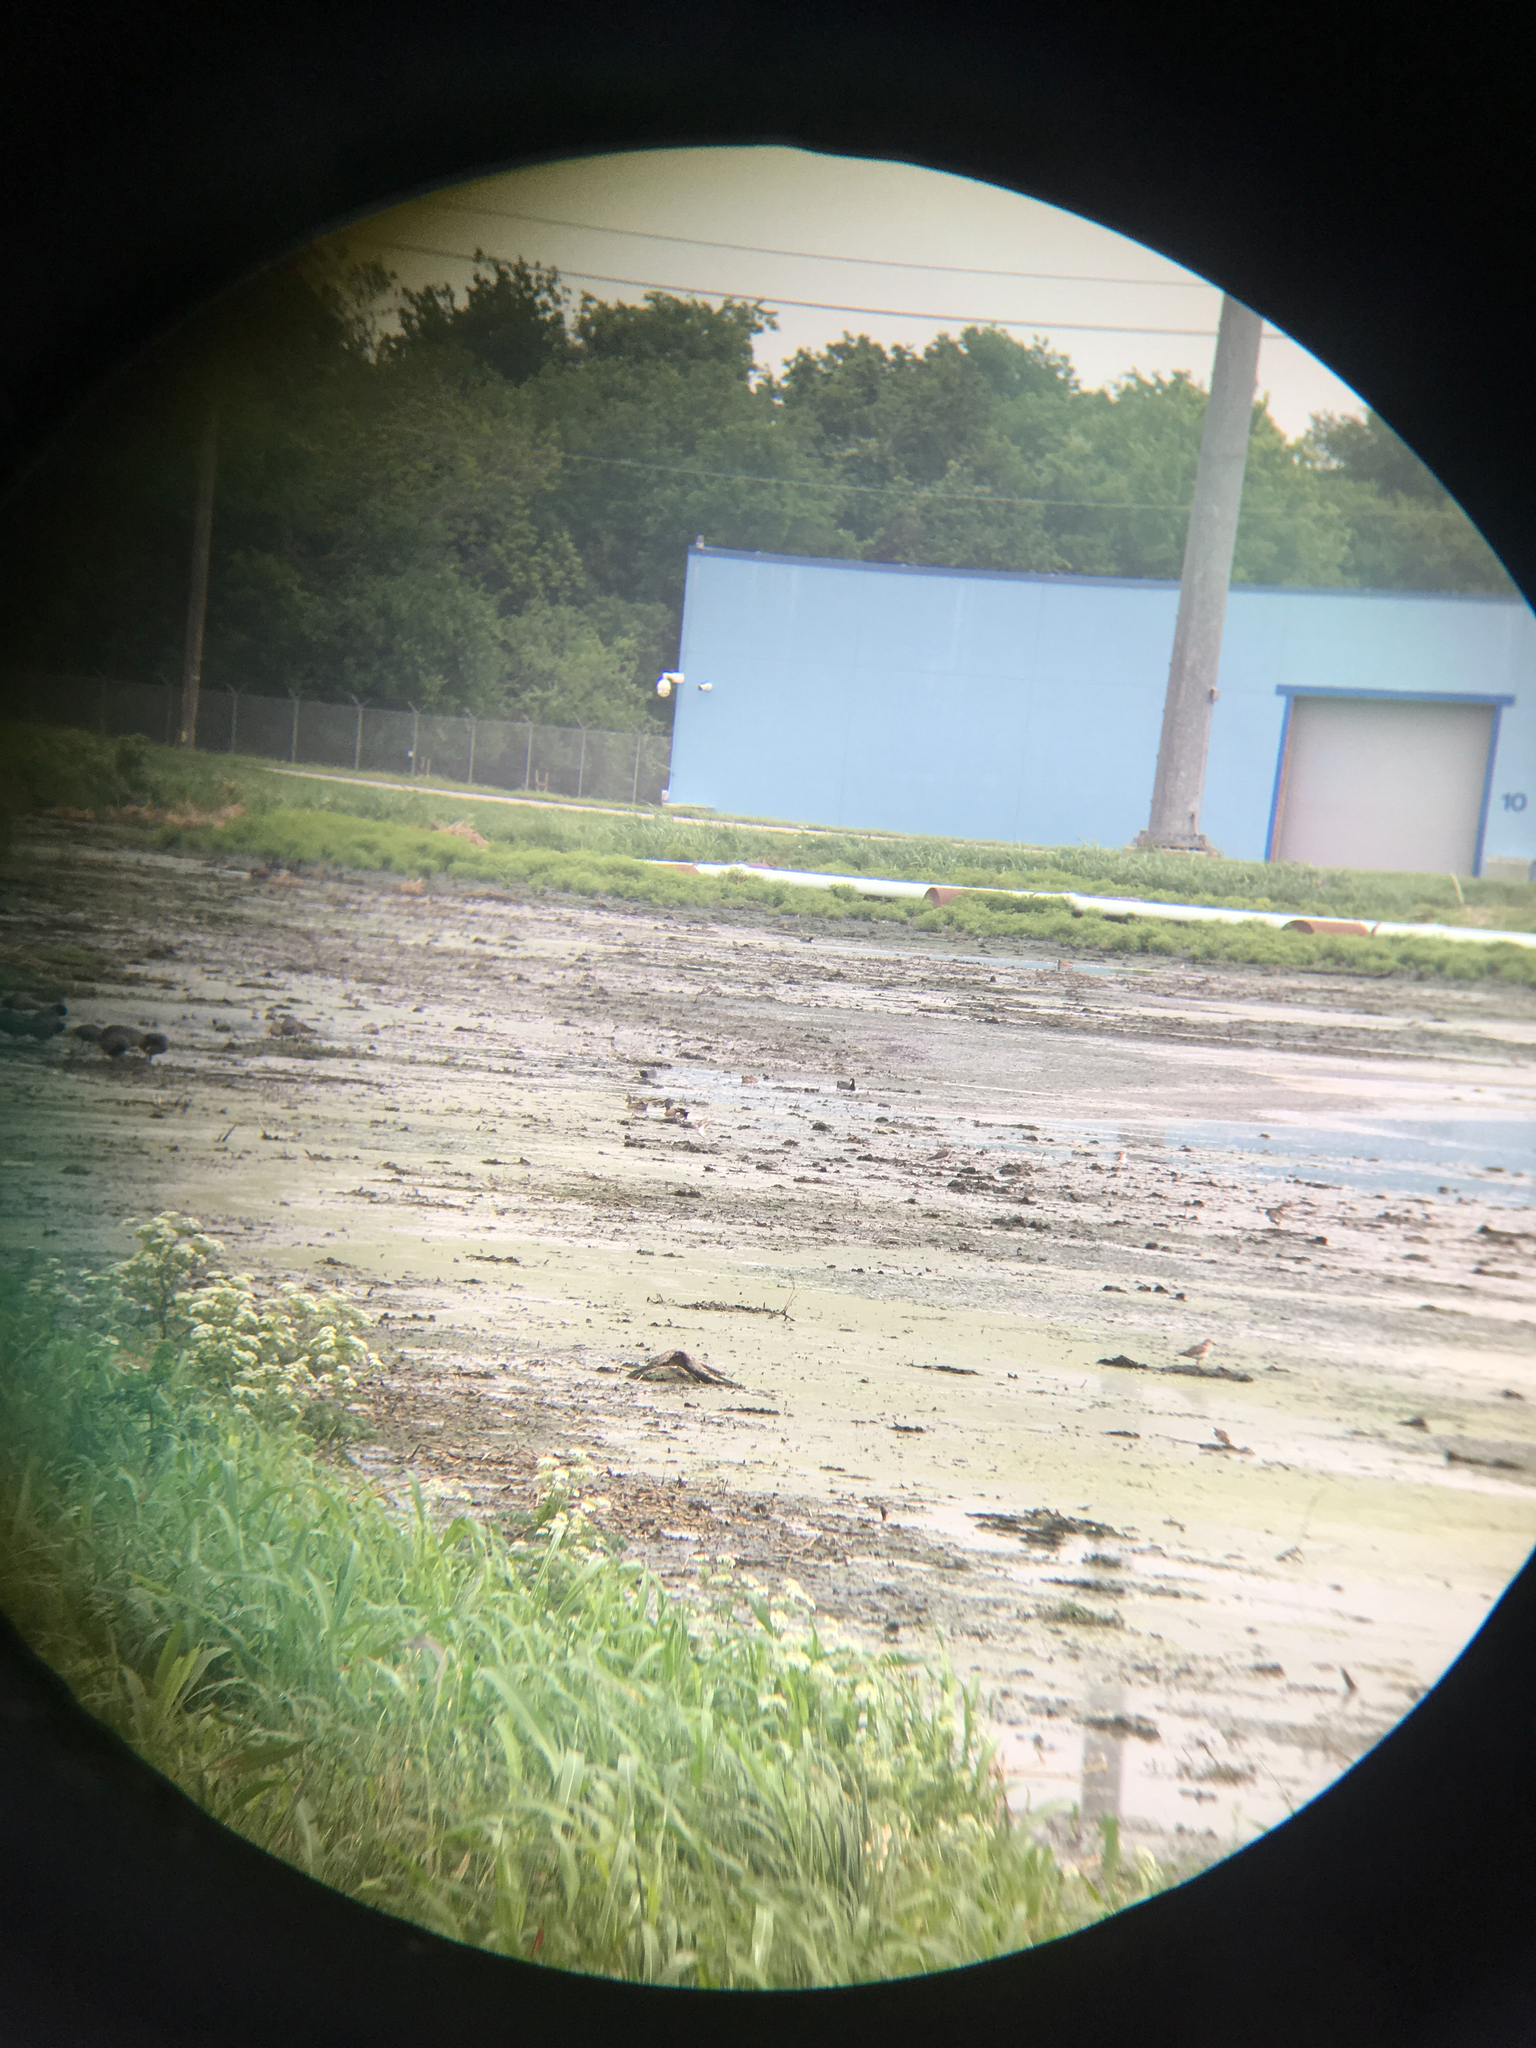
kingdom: Animalia
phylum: Chordata
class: Aves
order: Anseriformes
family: Anatidae
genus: Spatula
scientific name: Spatula discors
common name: Blue-winged teal
